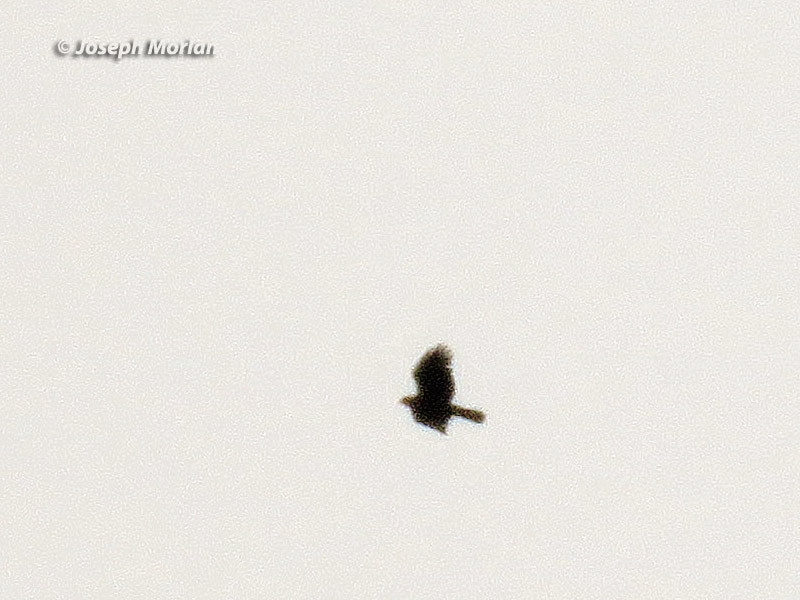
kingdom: Animalia
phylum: Chordata
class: Aves
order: Accipitriformes
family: Accipitridae
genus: Aquila
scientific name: Aquila chrysaetos
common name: Golden eagle
